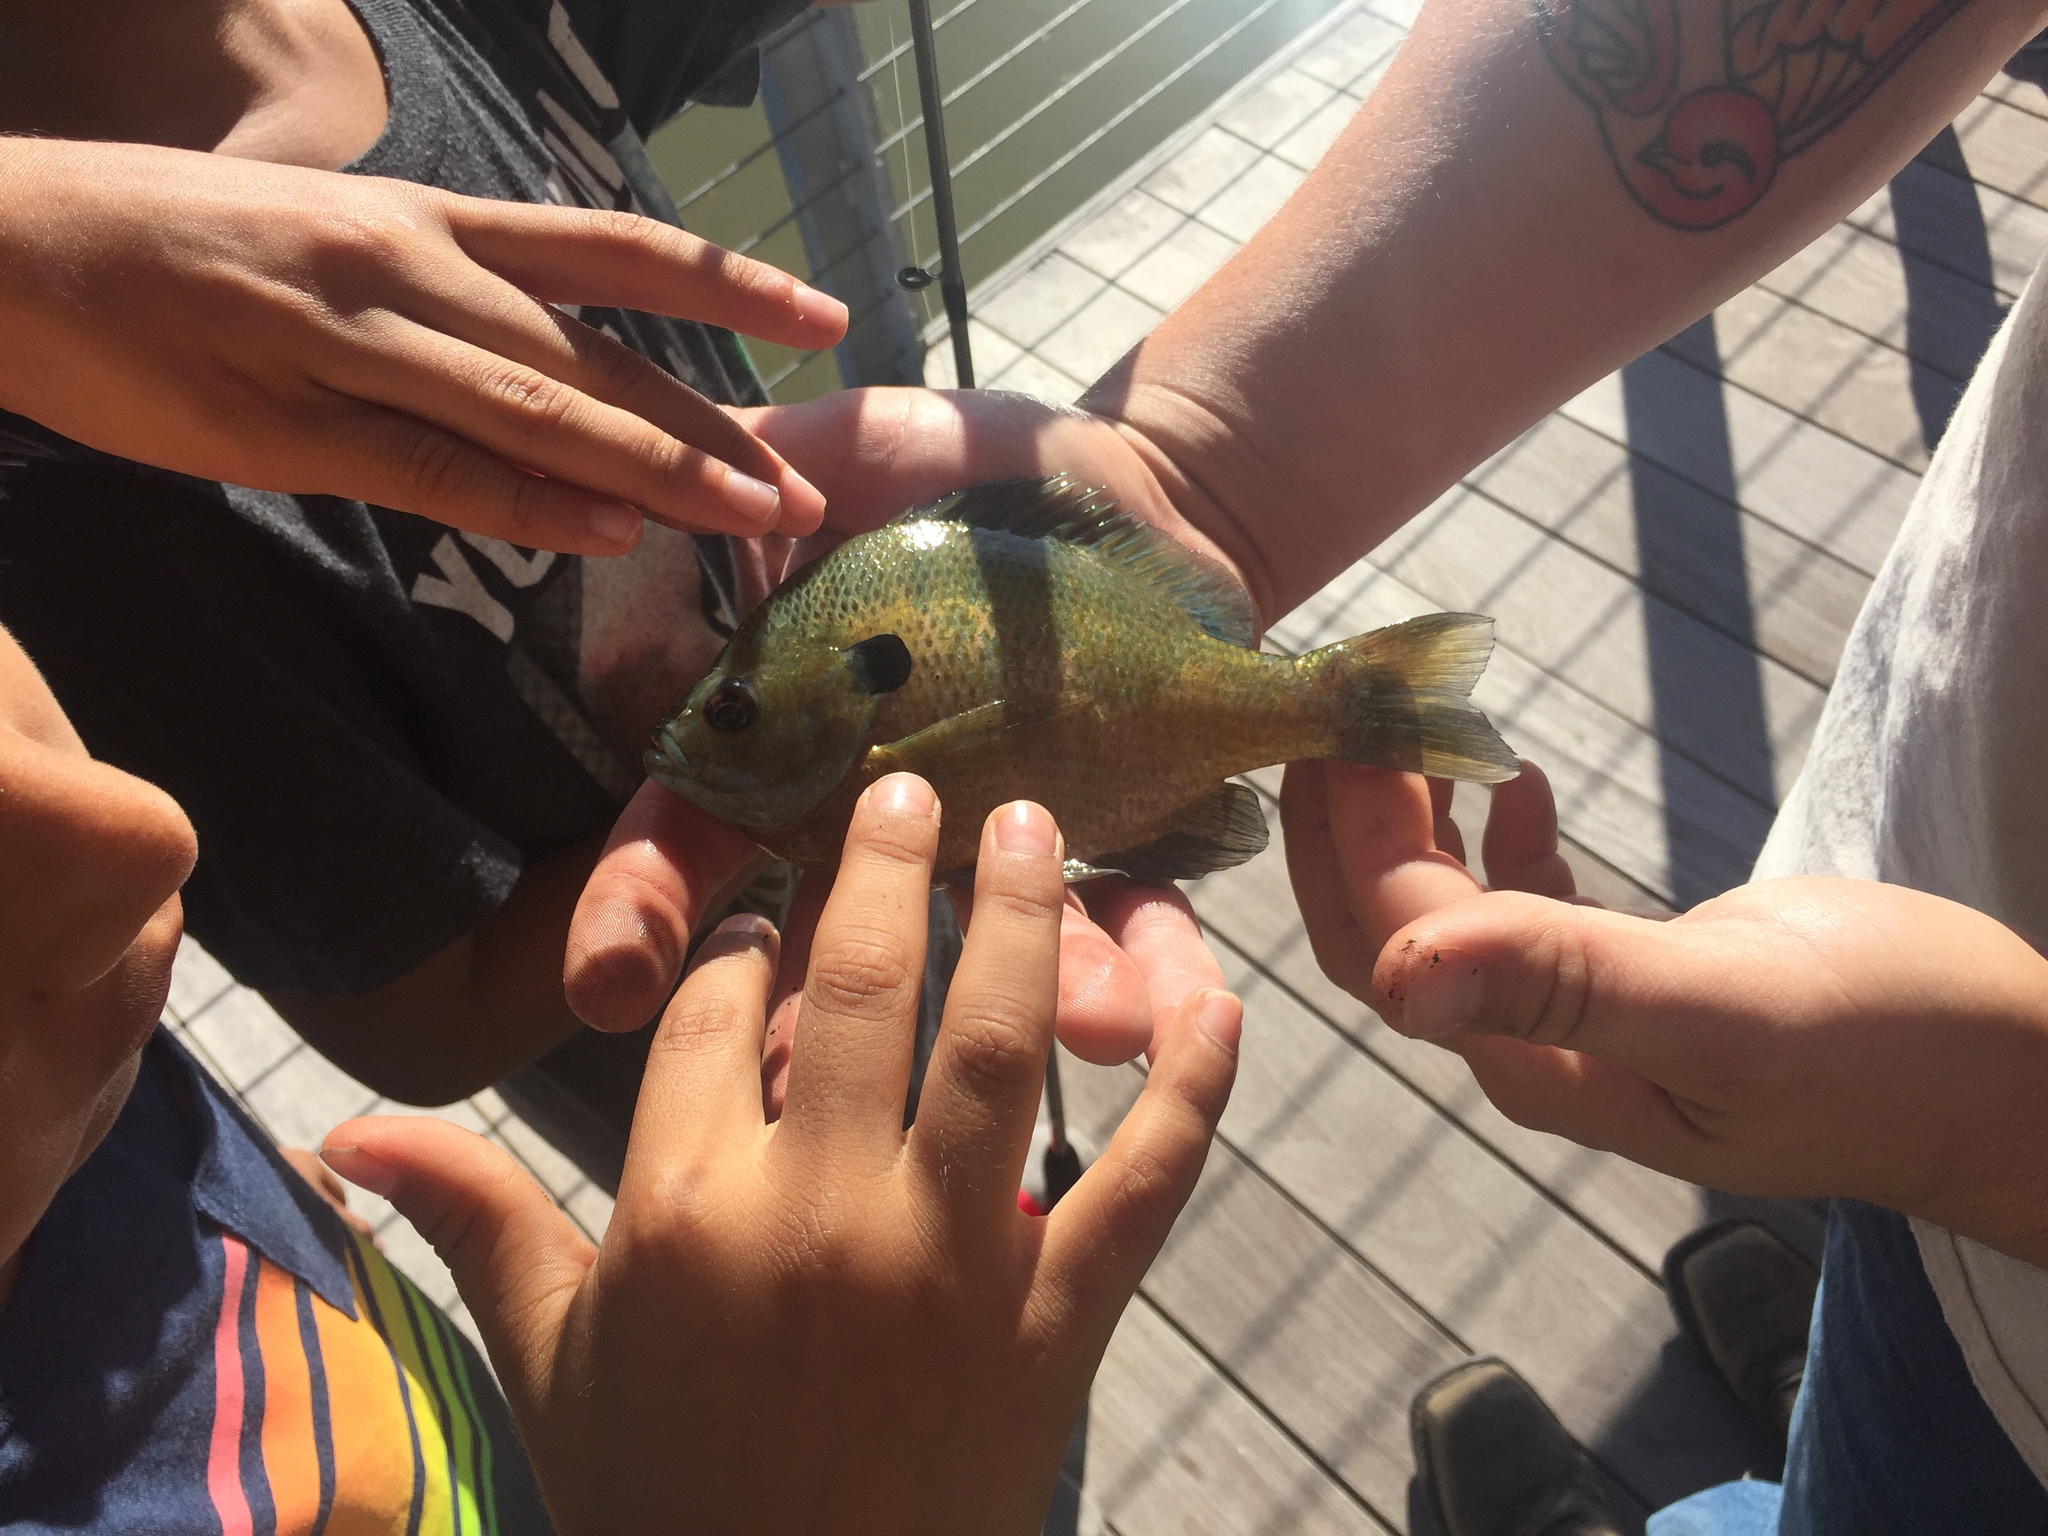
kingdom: Animalia
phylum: Chordata
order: Perciformes
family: Centrarchidae
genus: Lepomis
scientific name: Lepomis macrochirus
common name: Bluegill
